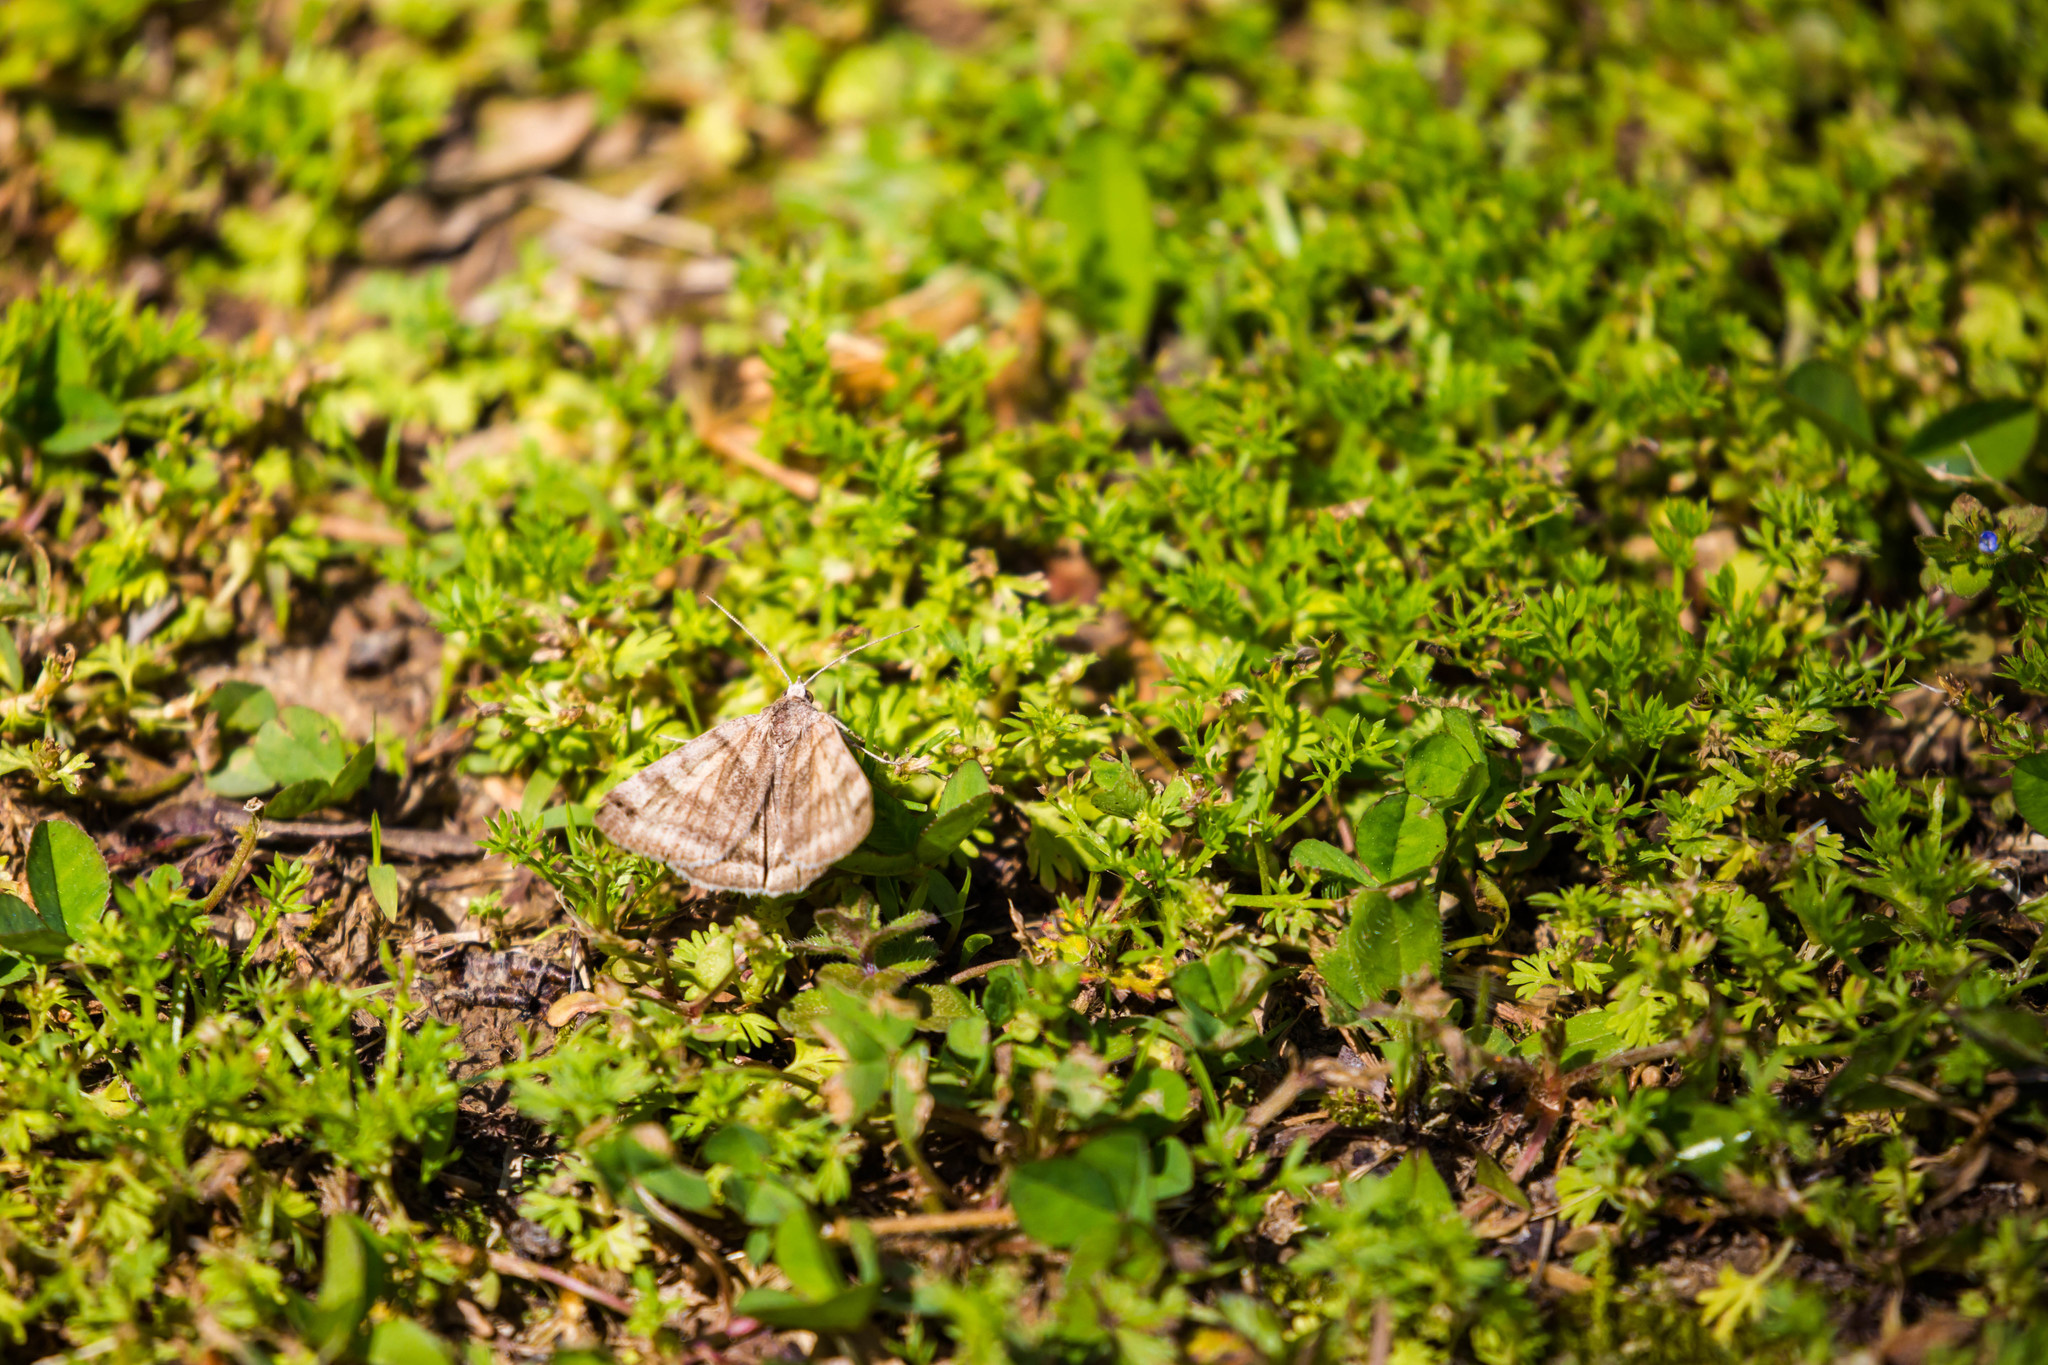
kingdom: Animalia
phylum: Arthropoda
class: Insecta
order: Lepidoptera
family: Erebidae
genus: Caenurgina
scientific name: Caenurgina crassiuscula
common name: Double-barred
